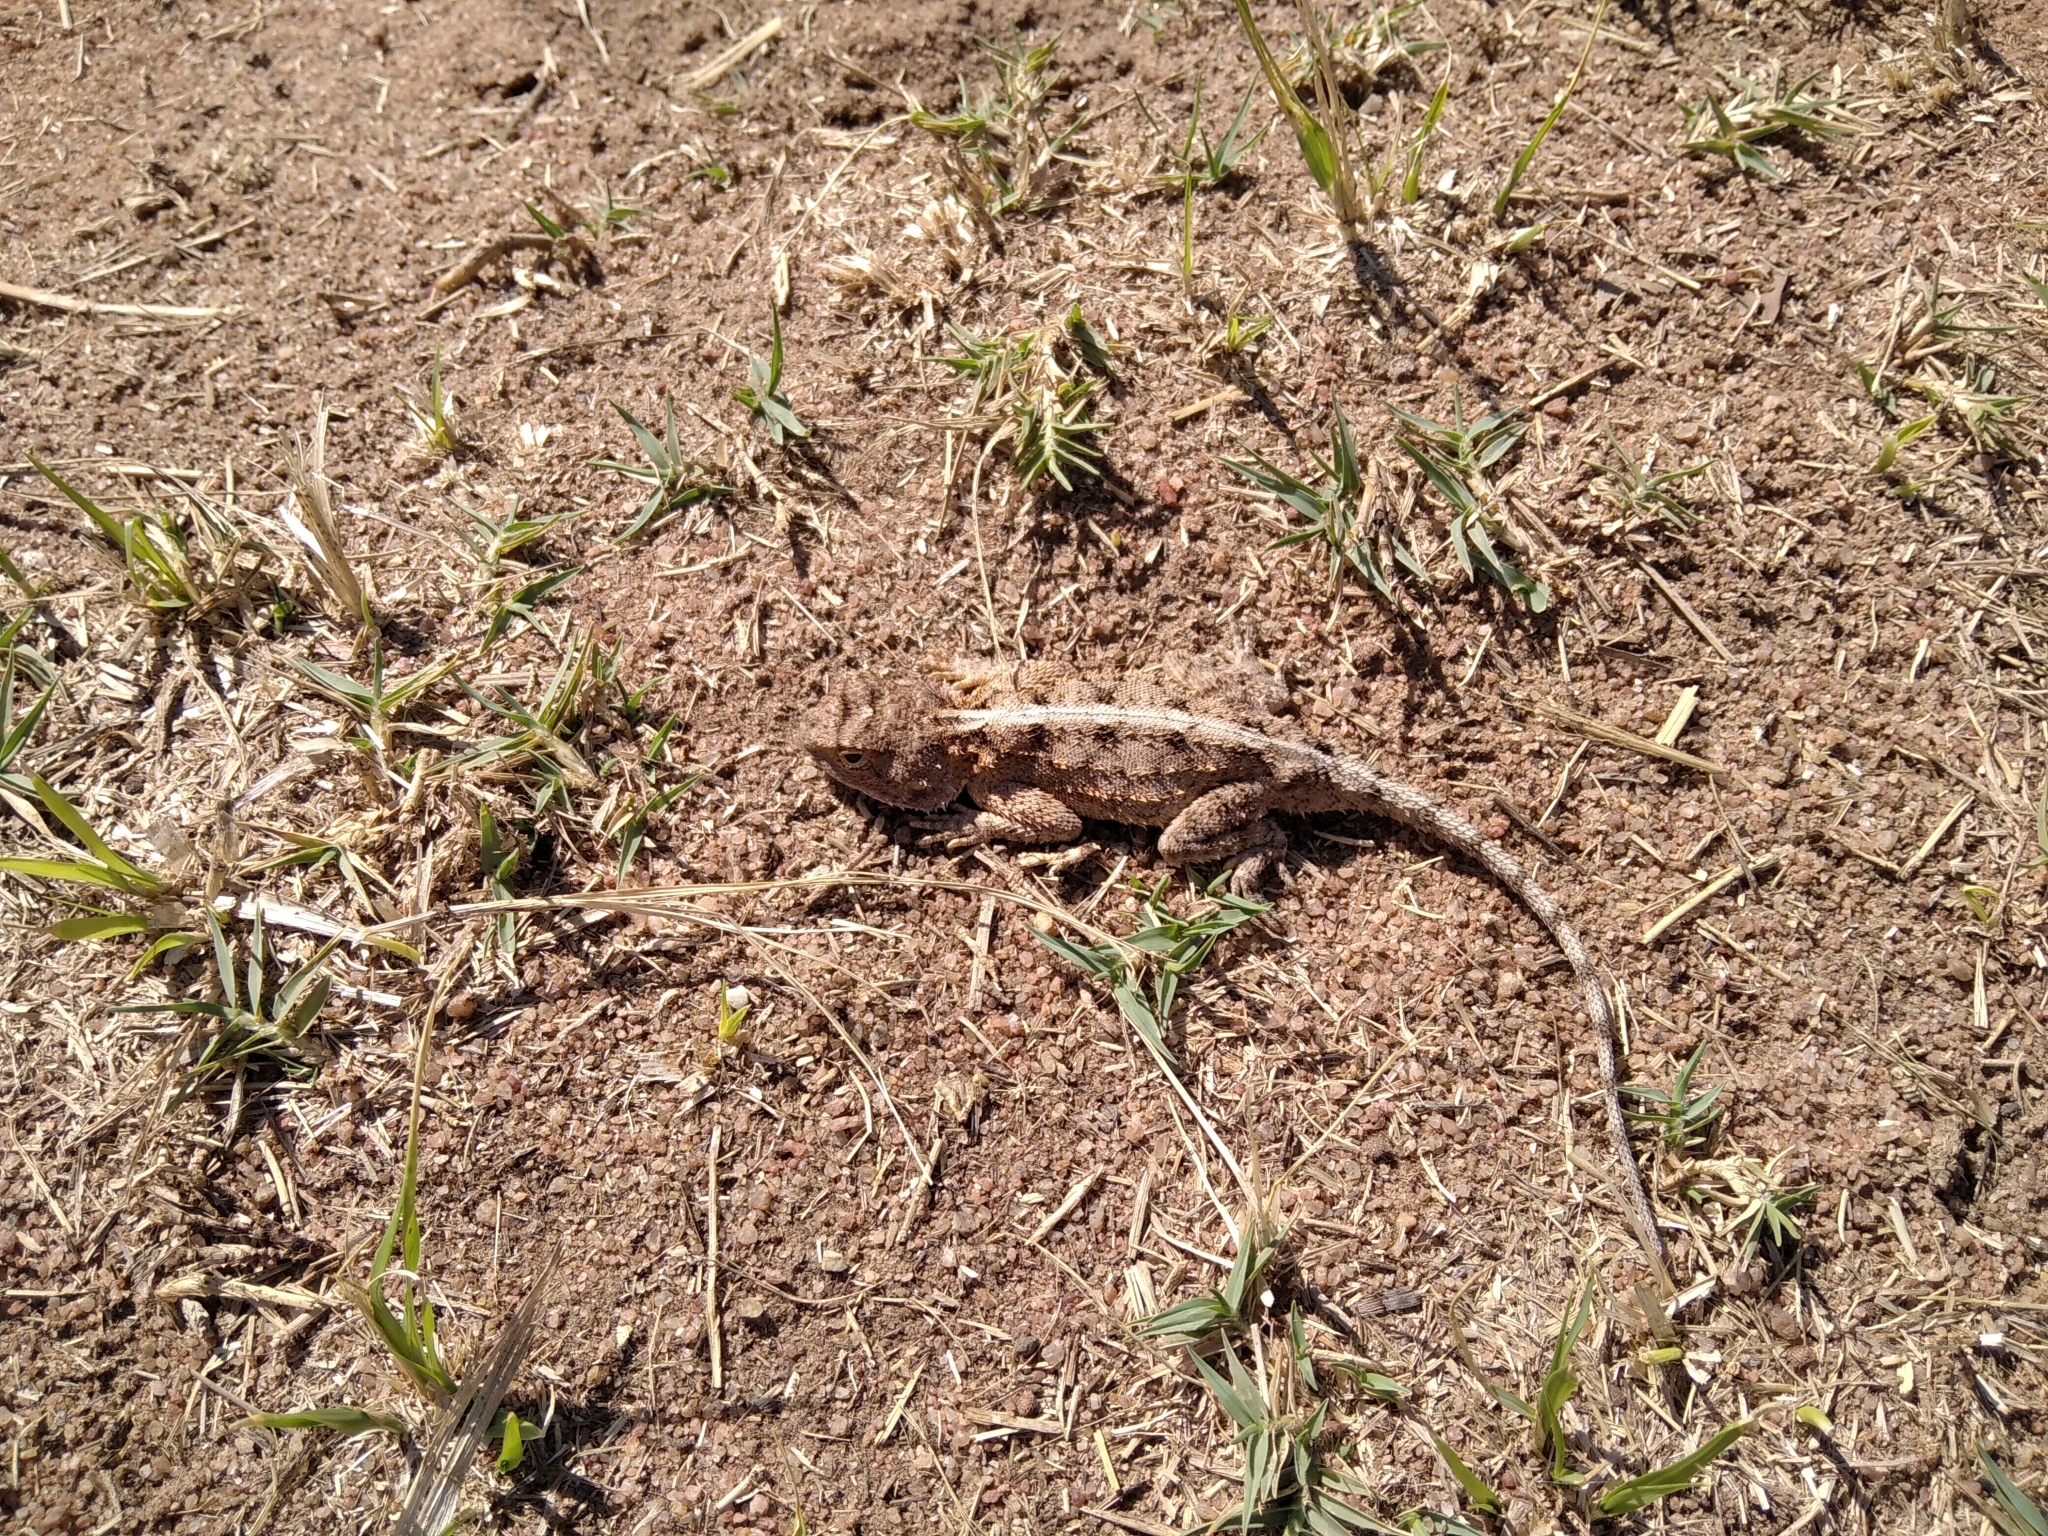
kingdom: Animalia
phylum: Chordata
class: Squamata
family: Agamidae
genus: Agama
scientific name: Agama armata
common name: Northern ground agama
